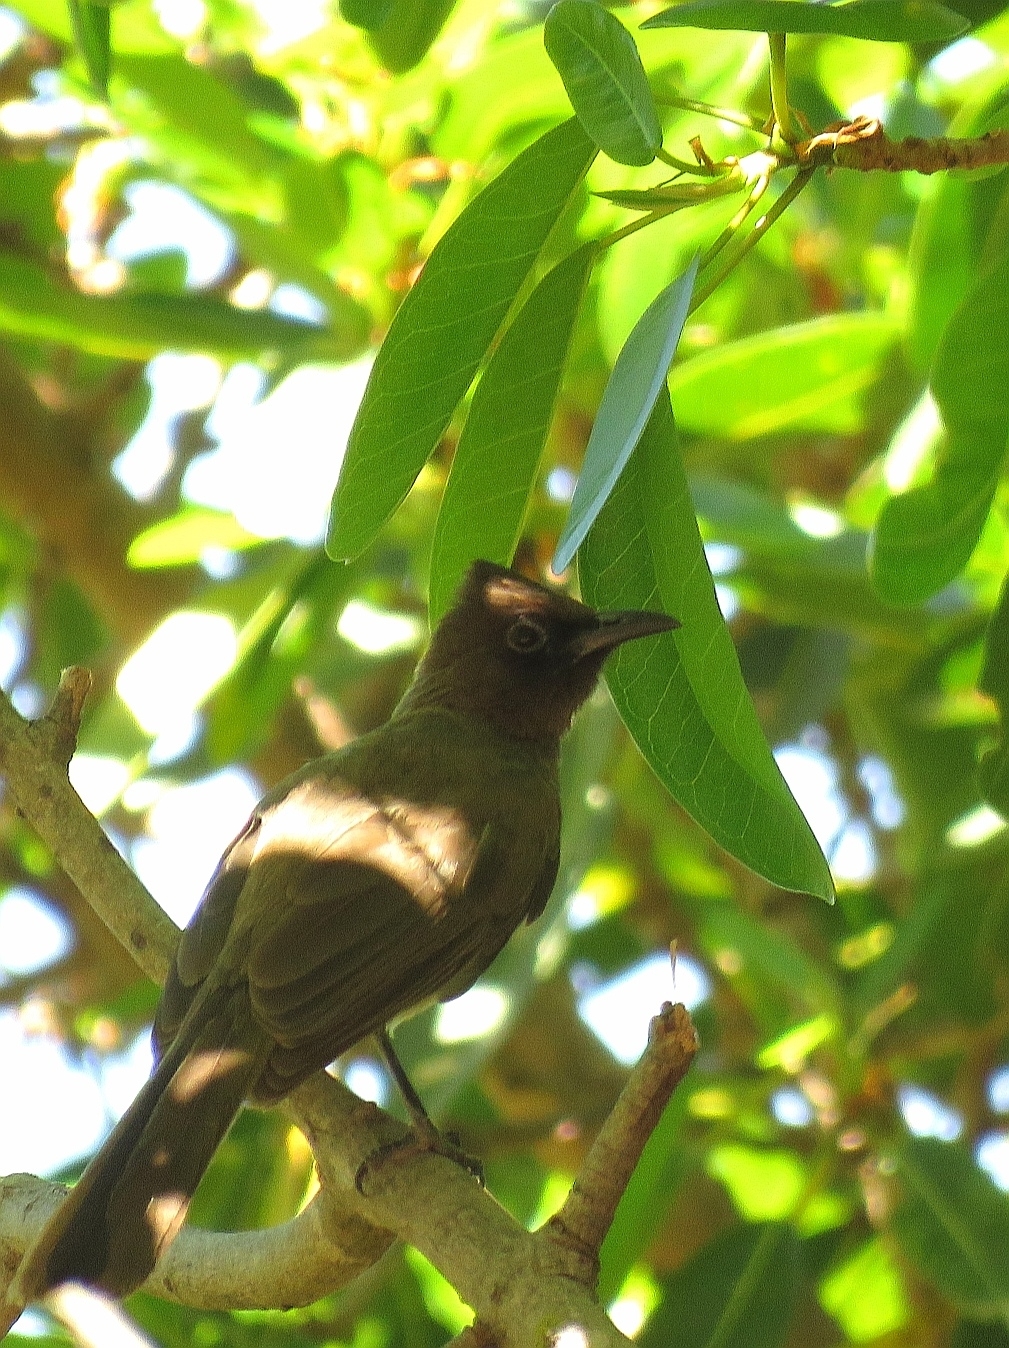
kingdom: Animalia
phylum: Chordata
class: Aves
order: Passeriformes
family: Pycnonotidae
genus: Pycnonotus
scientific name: Pycnonotus barbatus
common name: Common bulbul
